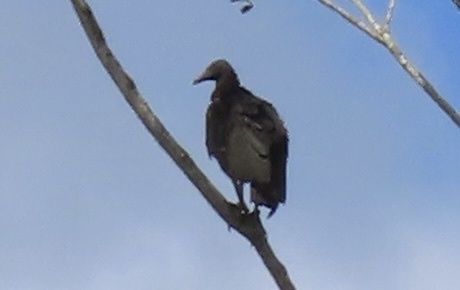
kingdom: Animalia
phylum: Chordata
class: Aves
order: Accipitriformes
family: Cathartidae
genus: Coragyps
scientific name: Coragyps atratus
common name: Black vulture
